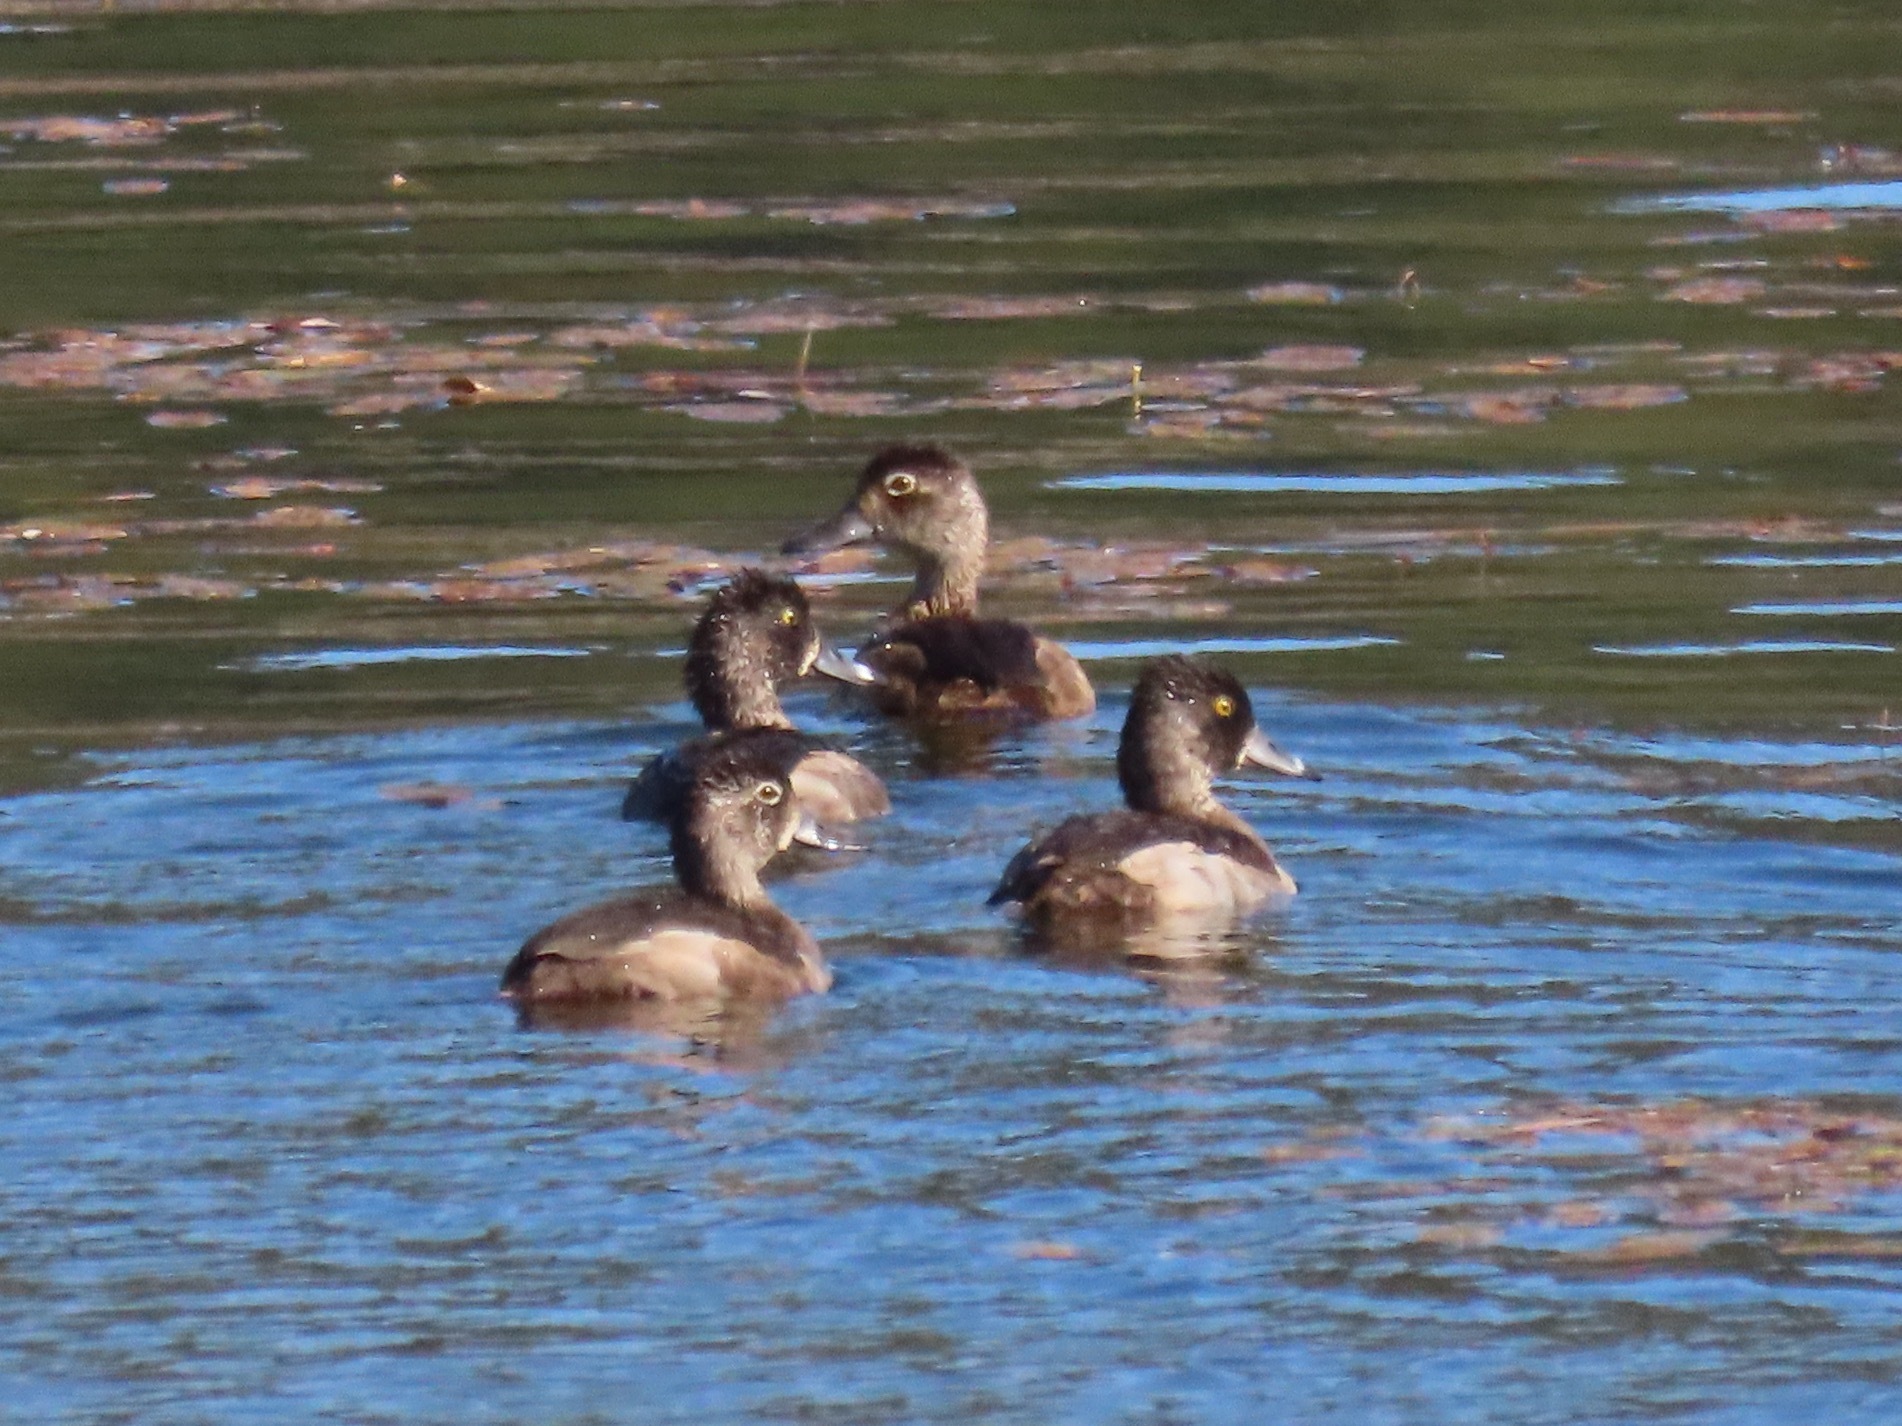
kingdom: Animalia
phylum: Chordata
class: Aves
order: Anseriformes
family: Anatidae
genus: Aythya
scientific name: Aythya collaris
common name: Ring-necked duck
